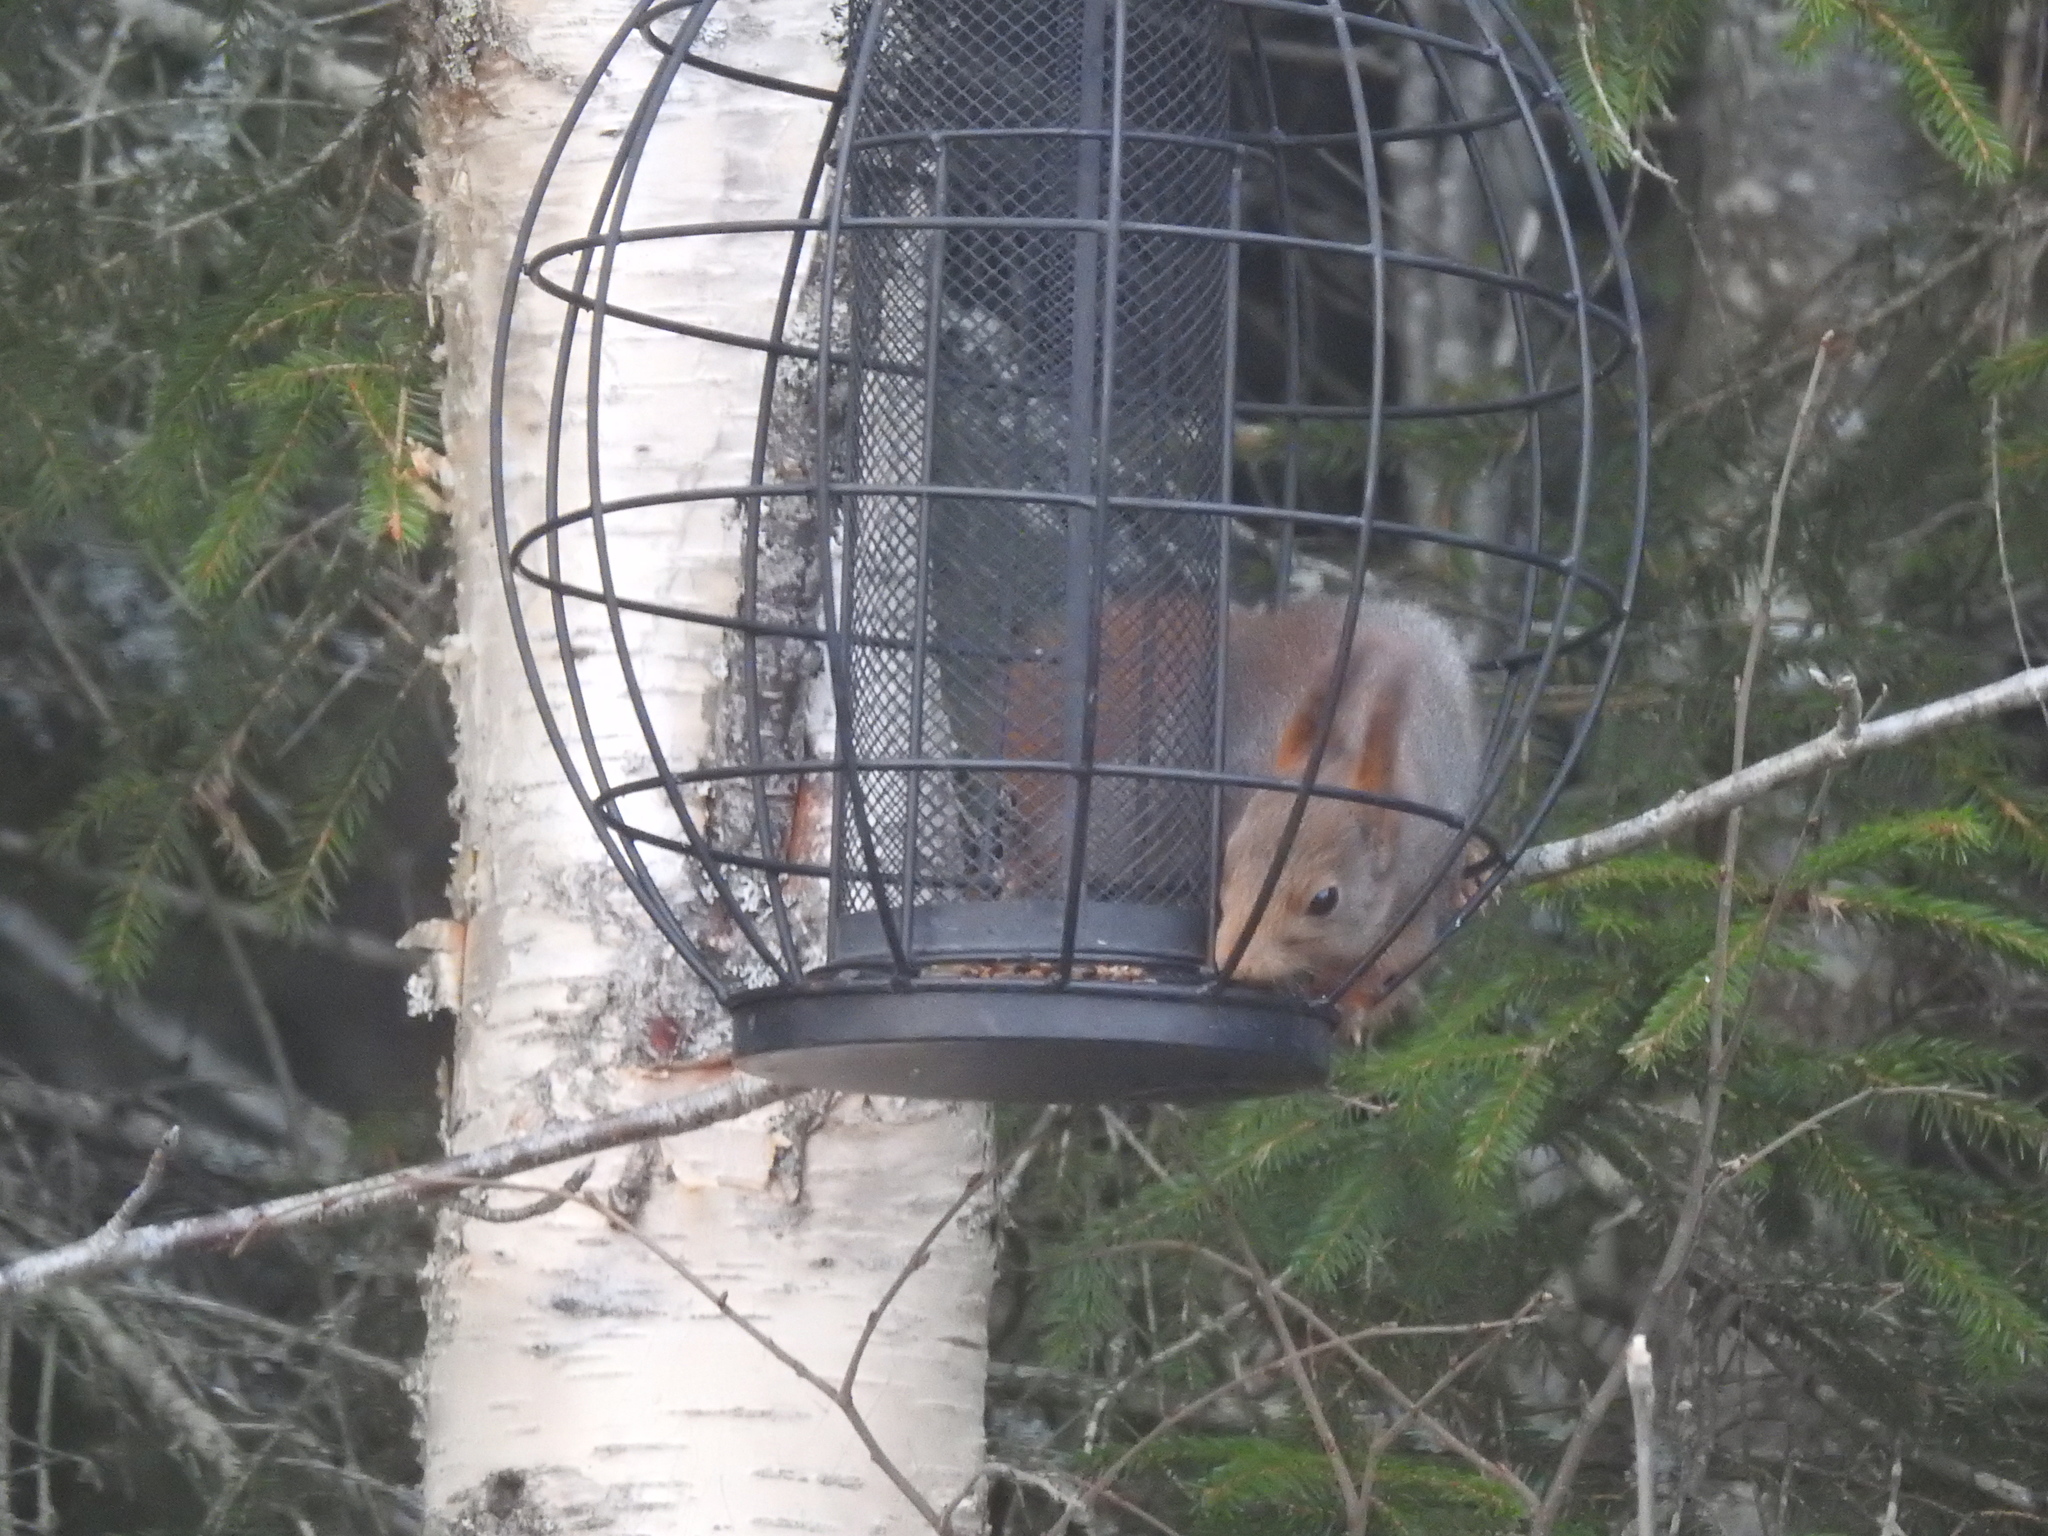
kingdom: Animalia
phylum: Chordata
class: Mammalia
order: Rodentia
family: Sciuridae
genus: Sciurus
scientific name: Sciurus vulgaris
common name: Eurasian red squirrel
